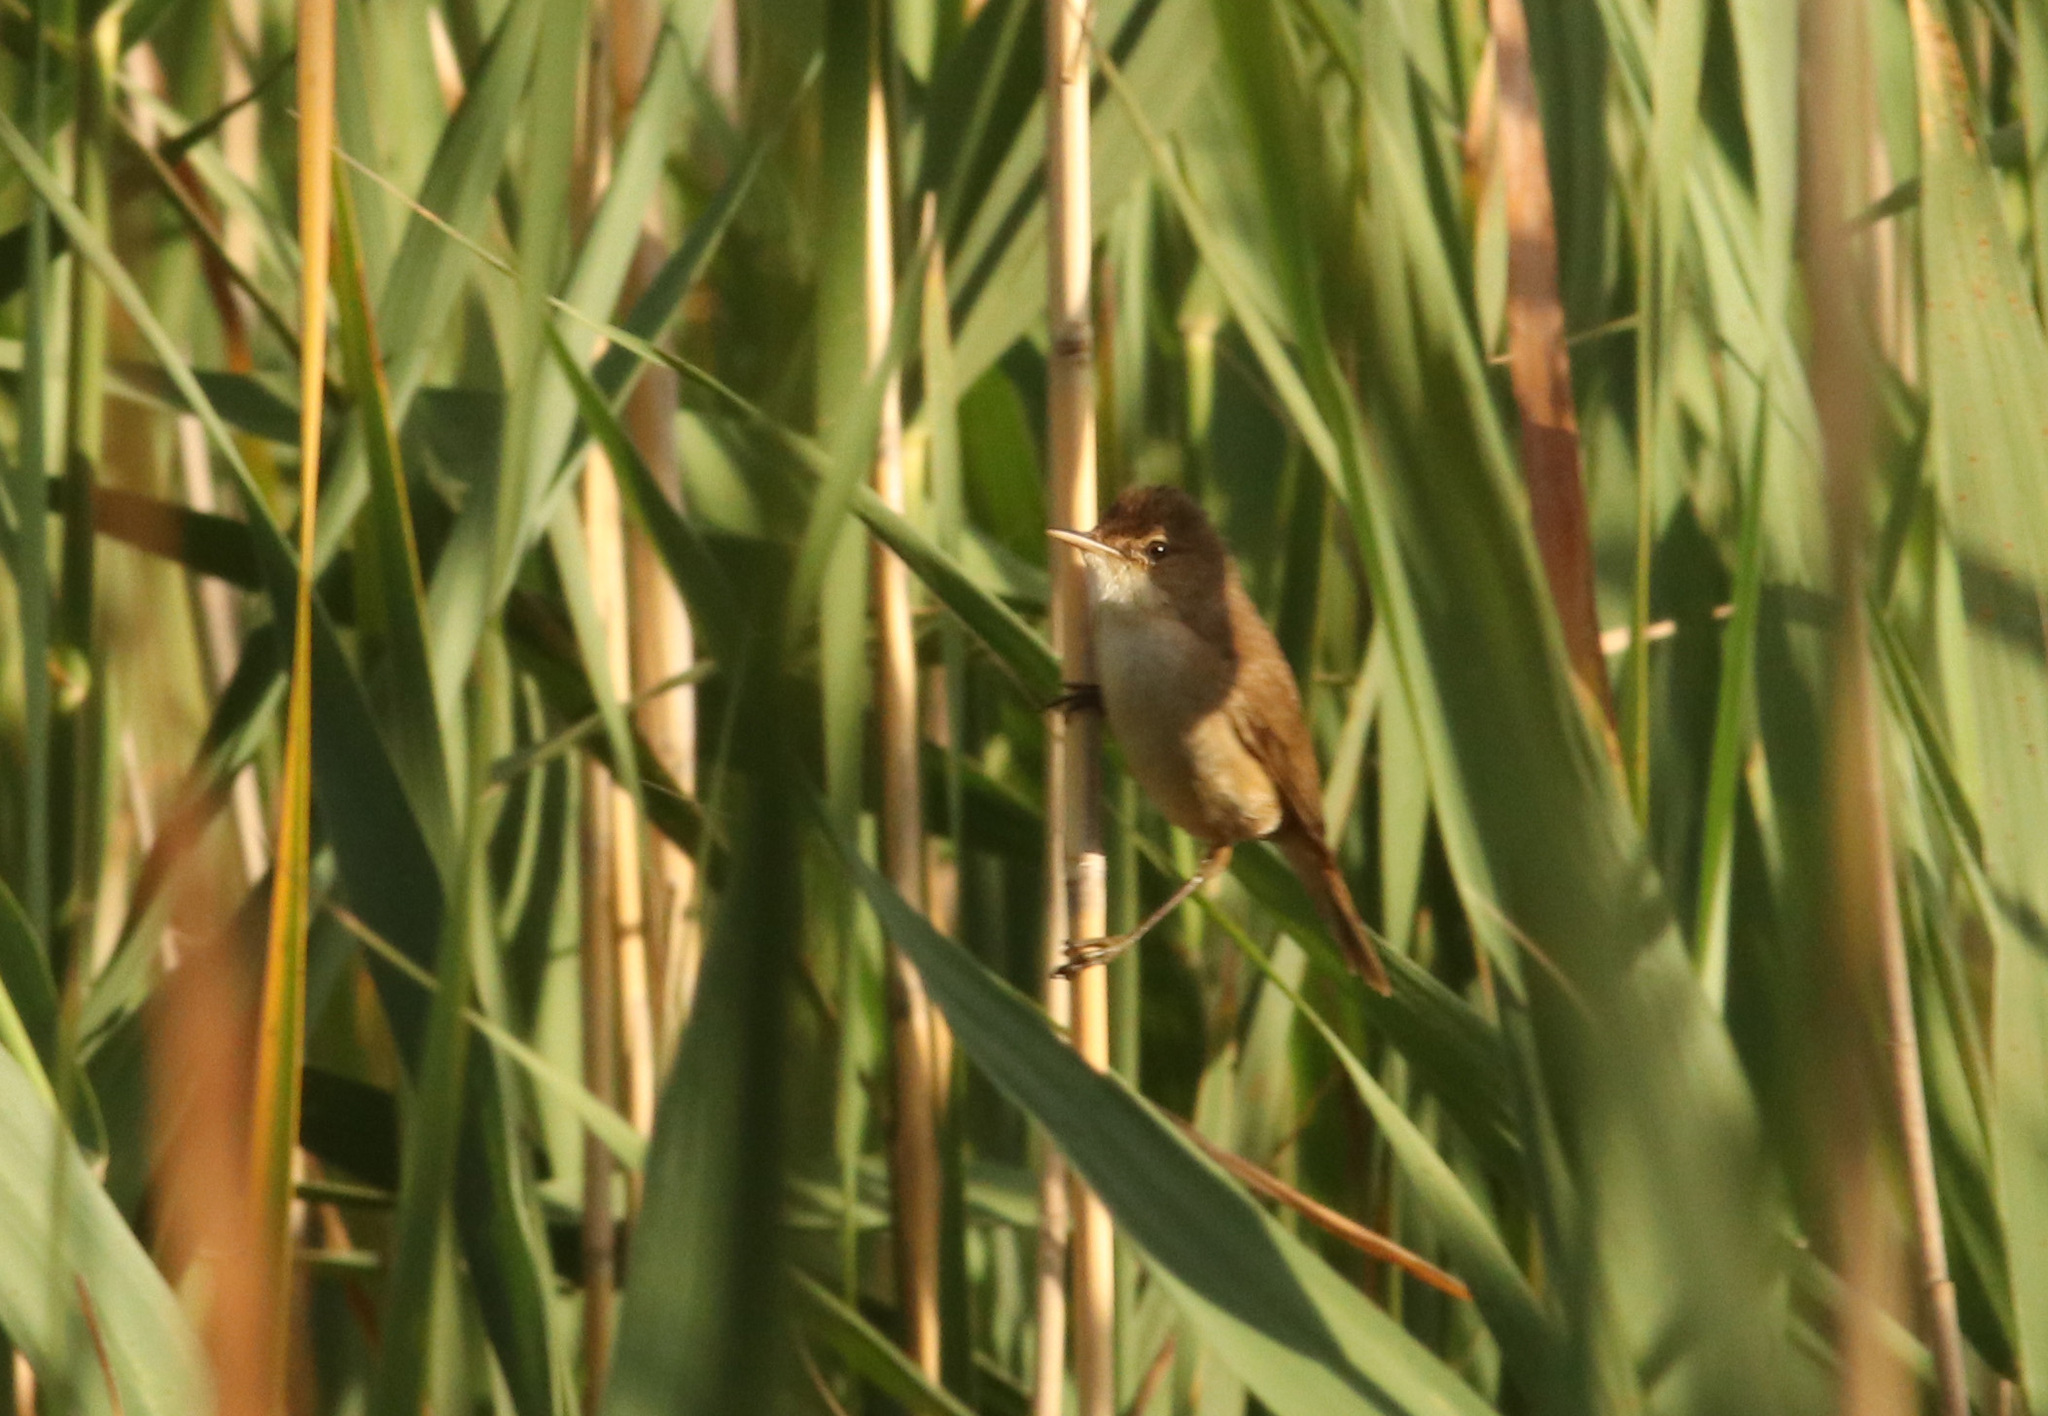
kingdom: Animalia
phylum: Chordata
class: Aves
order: Passeriformes
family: Acrocephalidae
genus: Acrocephalus
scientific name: Acrocephalus scirpaceus
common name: Eurasian reed warbler
